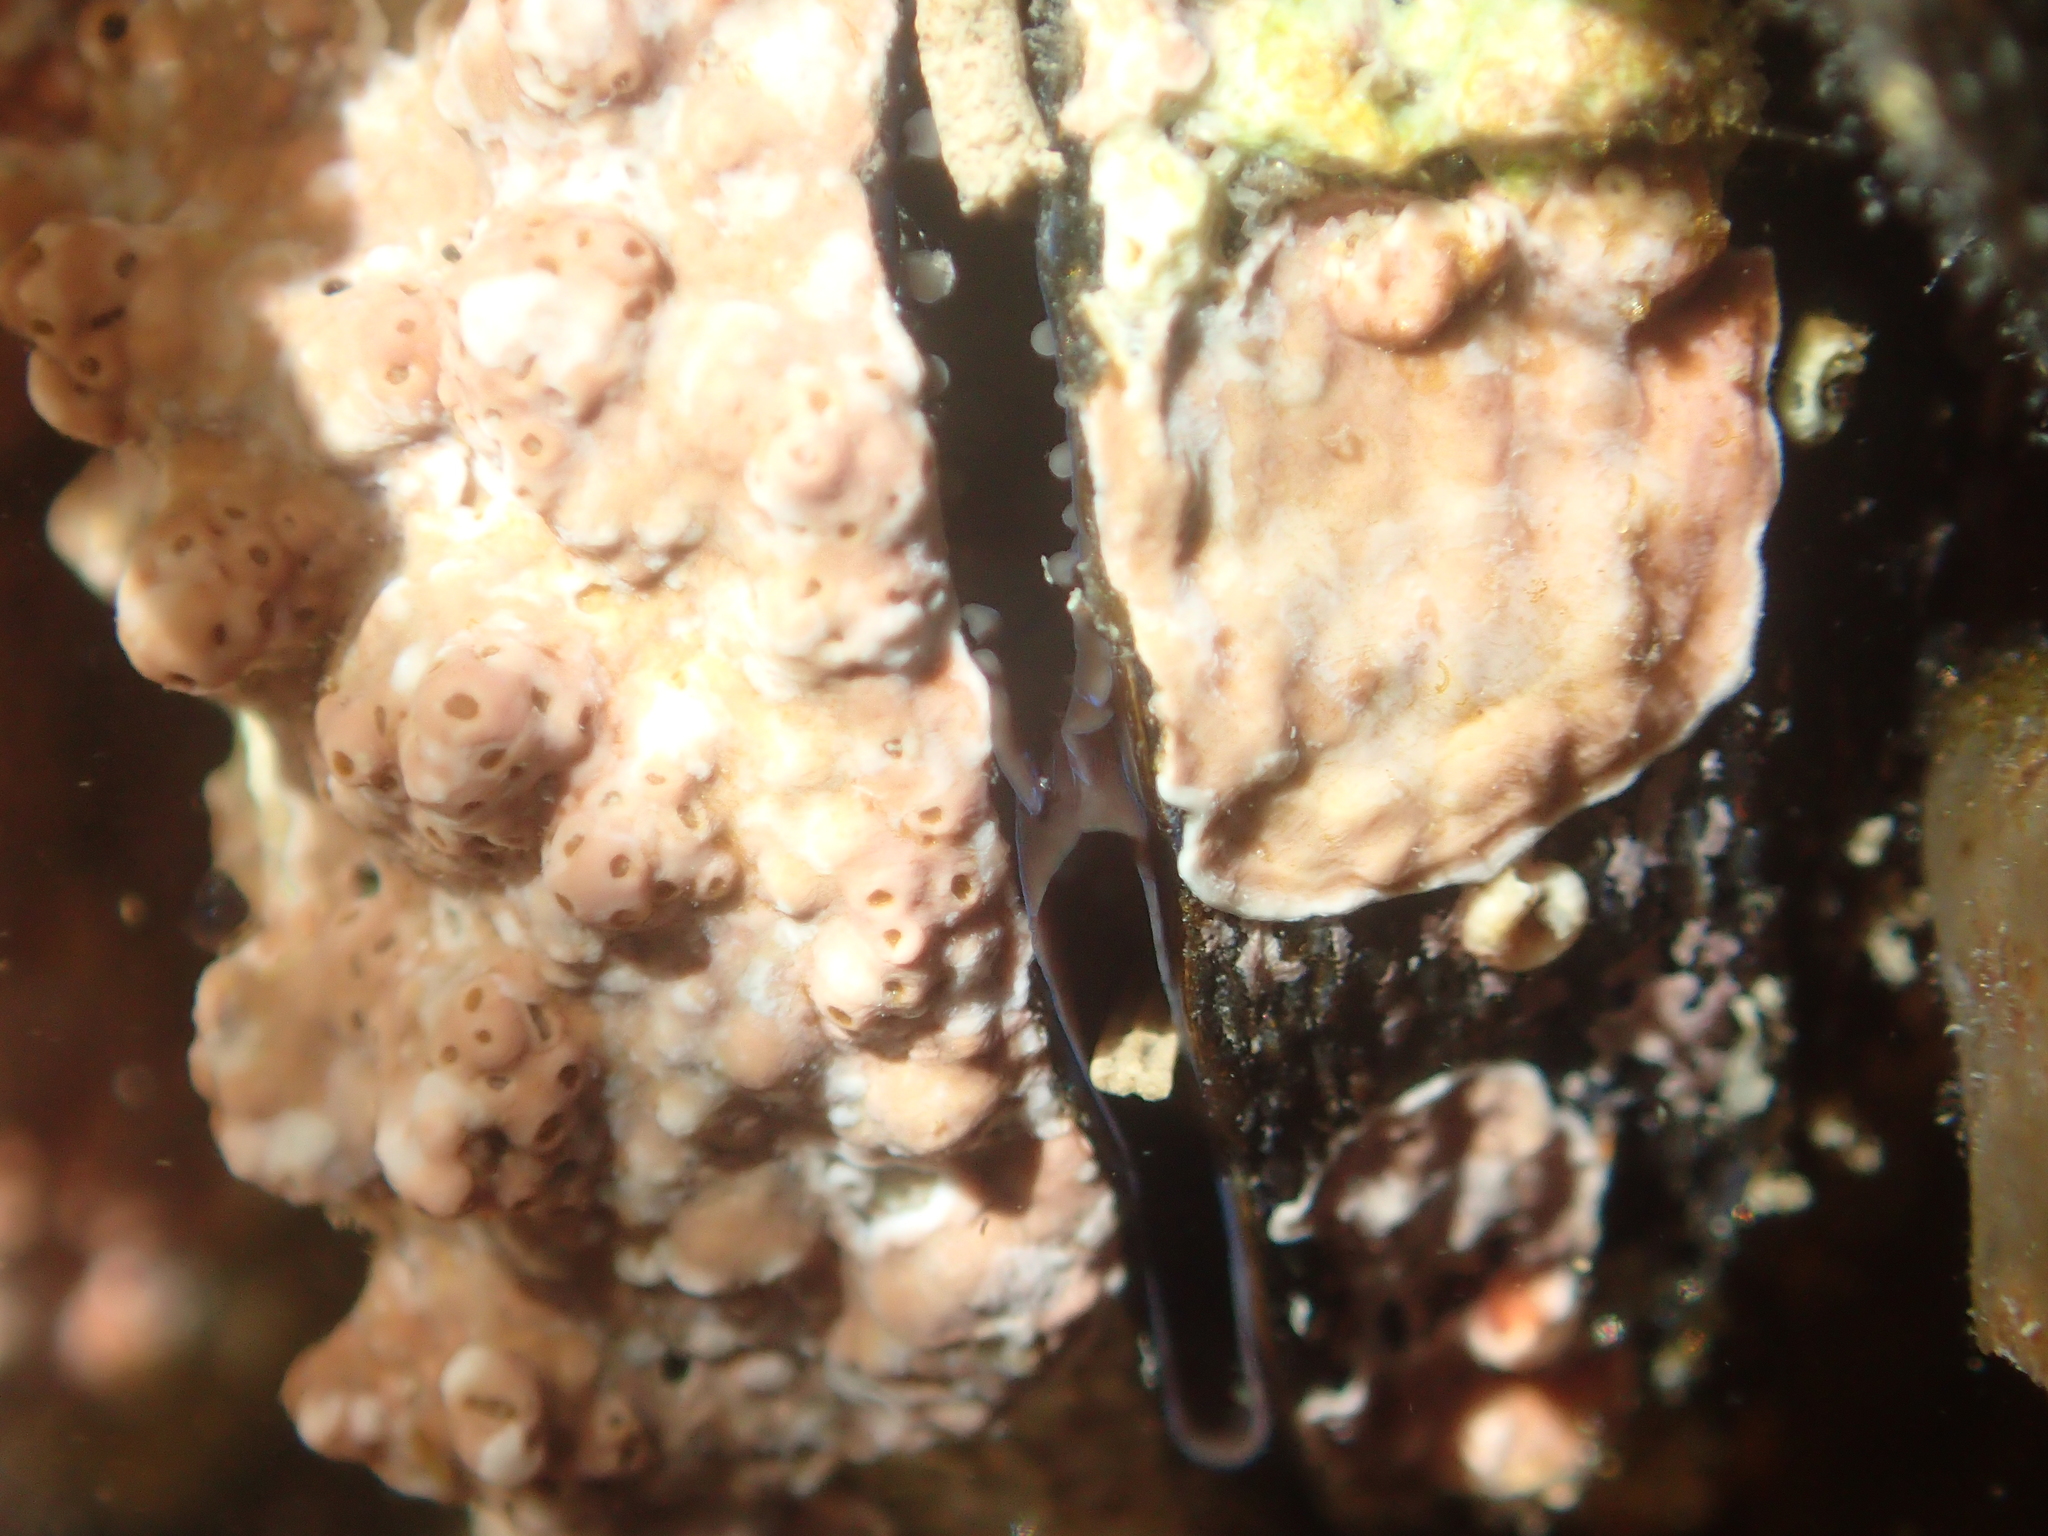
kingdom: Animalia
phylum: Mollusca
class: Bivalvia
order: Mytilida
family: Mytilidae
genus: Aulacomya
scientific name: Aulacomya maoriana
